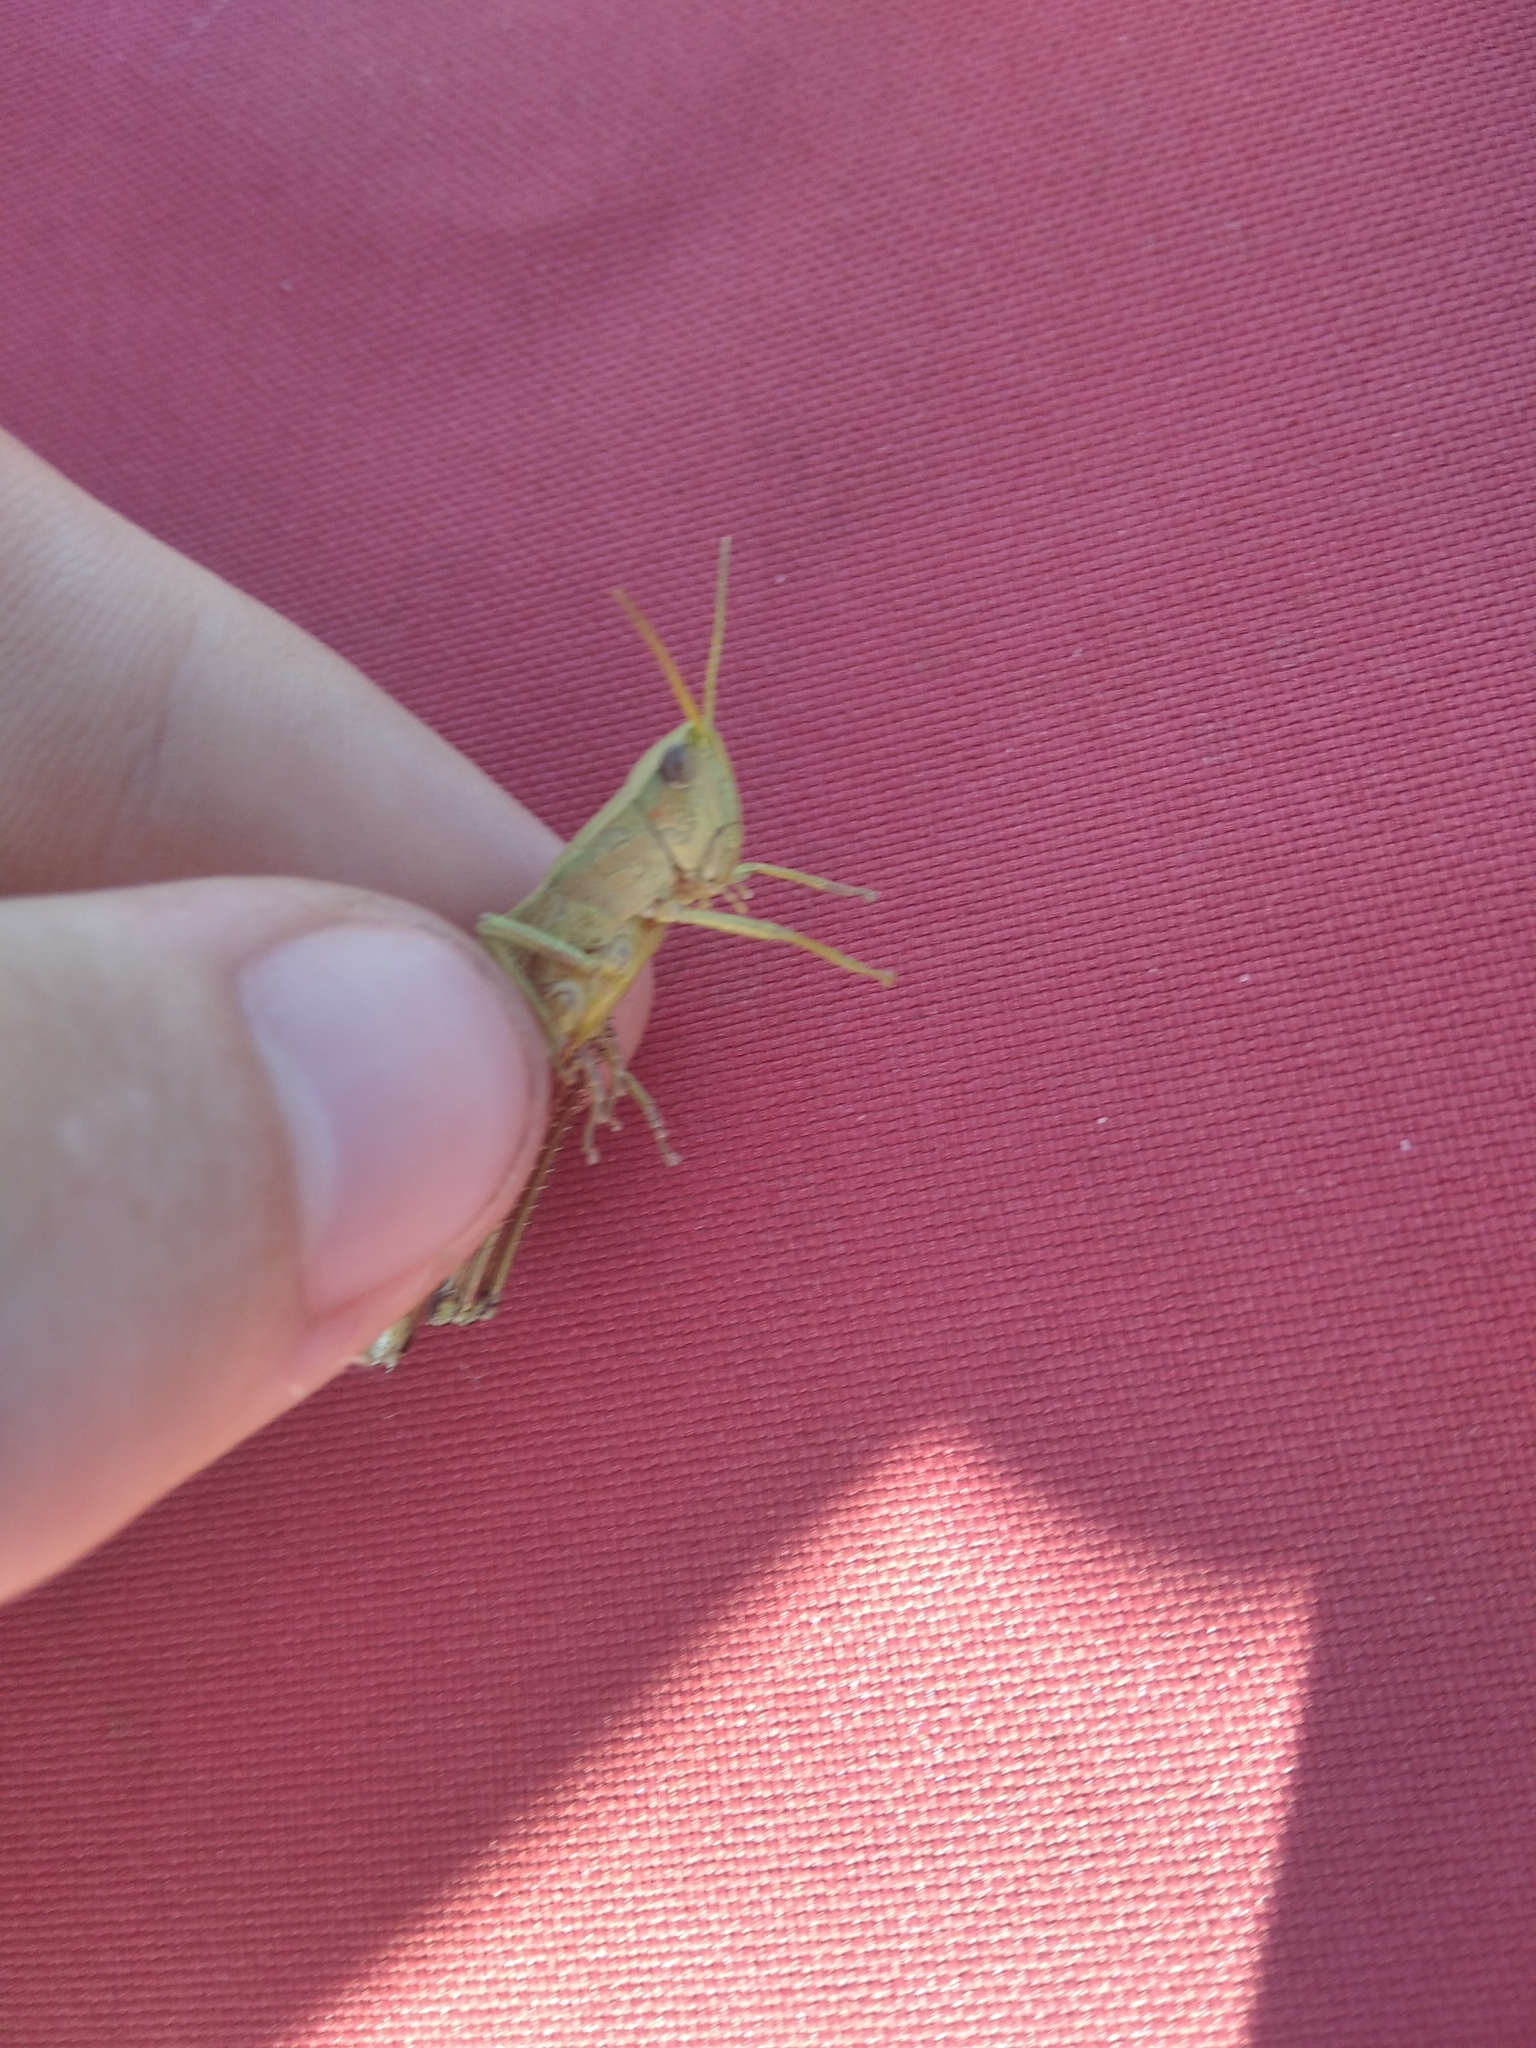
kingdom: Animalia
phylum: Arthropoda
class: Insecta
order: Orthoptera
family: Acrididae
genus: Chrysochraon
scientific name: Chrysochraon dispar
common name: Large gold grasshopper
